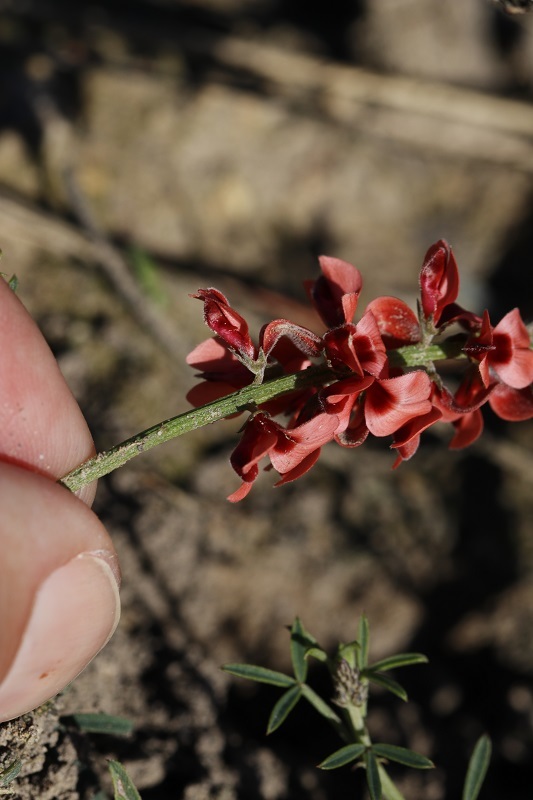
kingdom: Plantae
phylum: Tracheophyta
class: Magnoliopsida
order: Fabales
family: Fabaceae
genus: Indigofera
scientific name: Indigofera heterophylla
